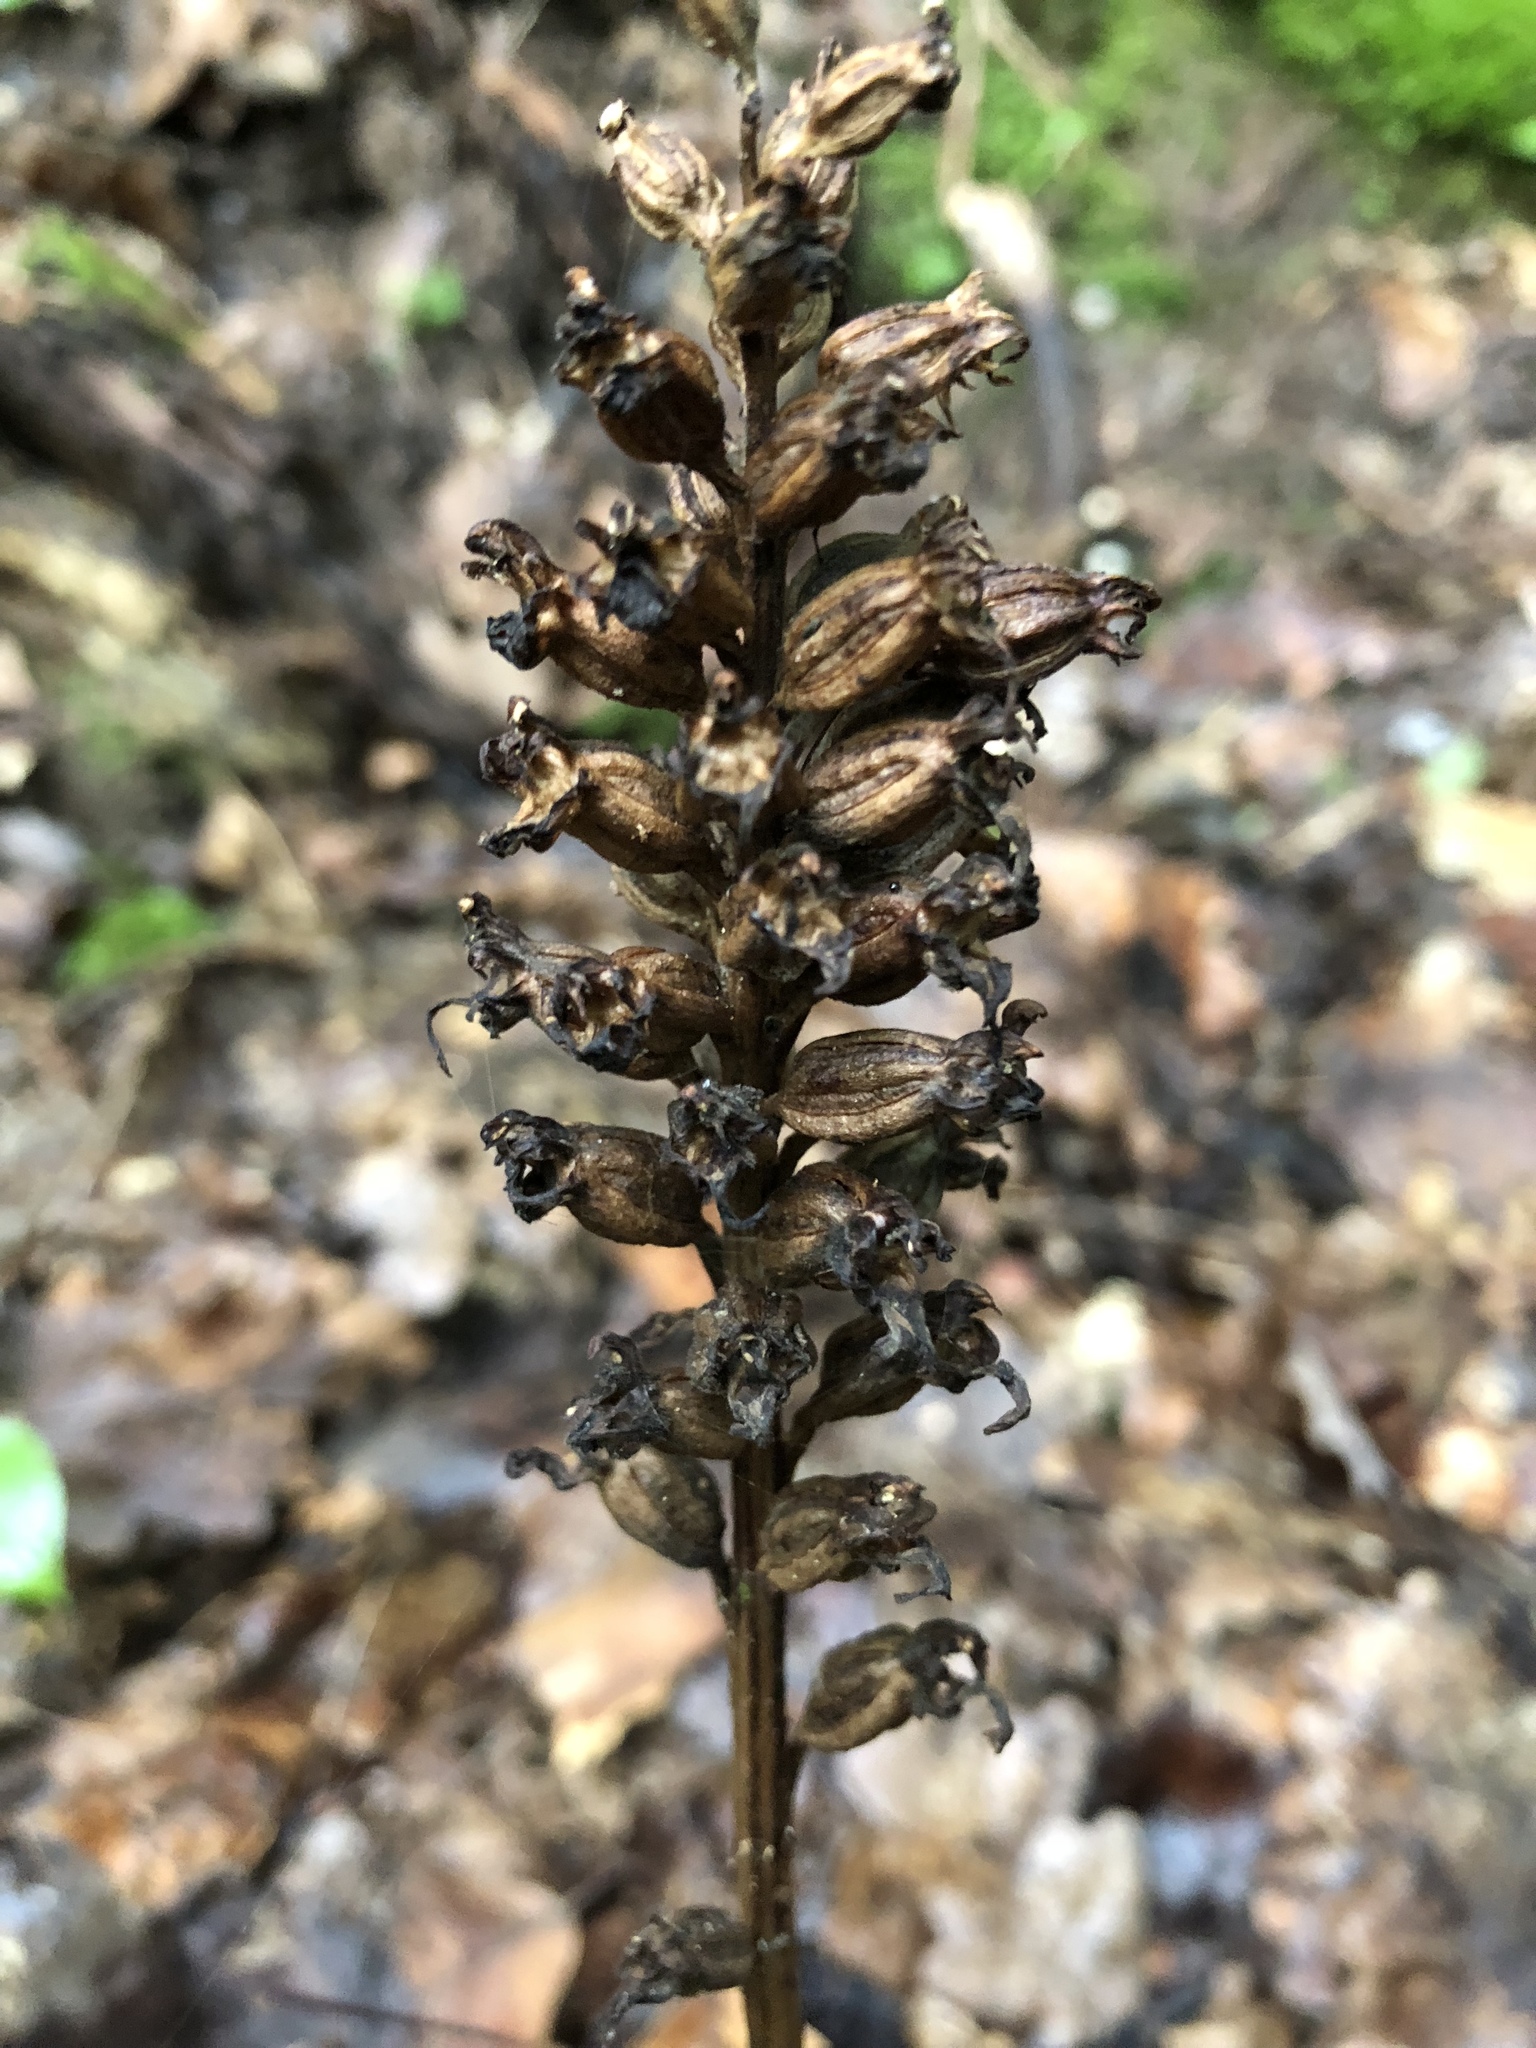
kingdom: Plantae
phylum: Tracheophyta
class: Liliopsida
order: Asparagales
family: Orchidaceae
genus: Neottia
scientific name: Neottia nidus-avis
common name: Bird's-nest orchid
